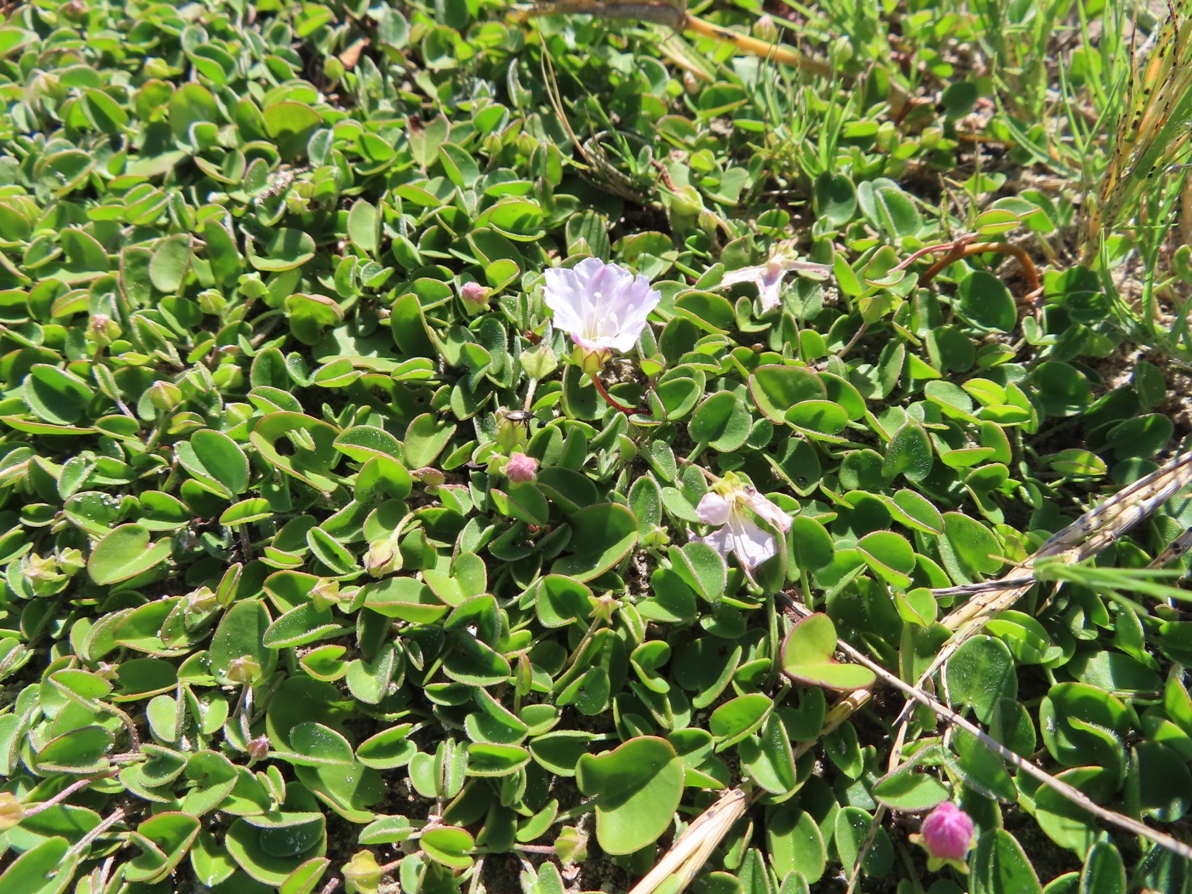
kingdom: Plantae
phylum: Tracheophyta
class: Magnoliopsida
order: Solanales
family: Convolvulaceae
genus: Falkia
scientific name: Falkia repens
